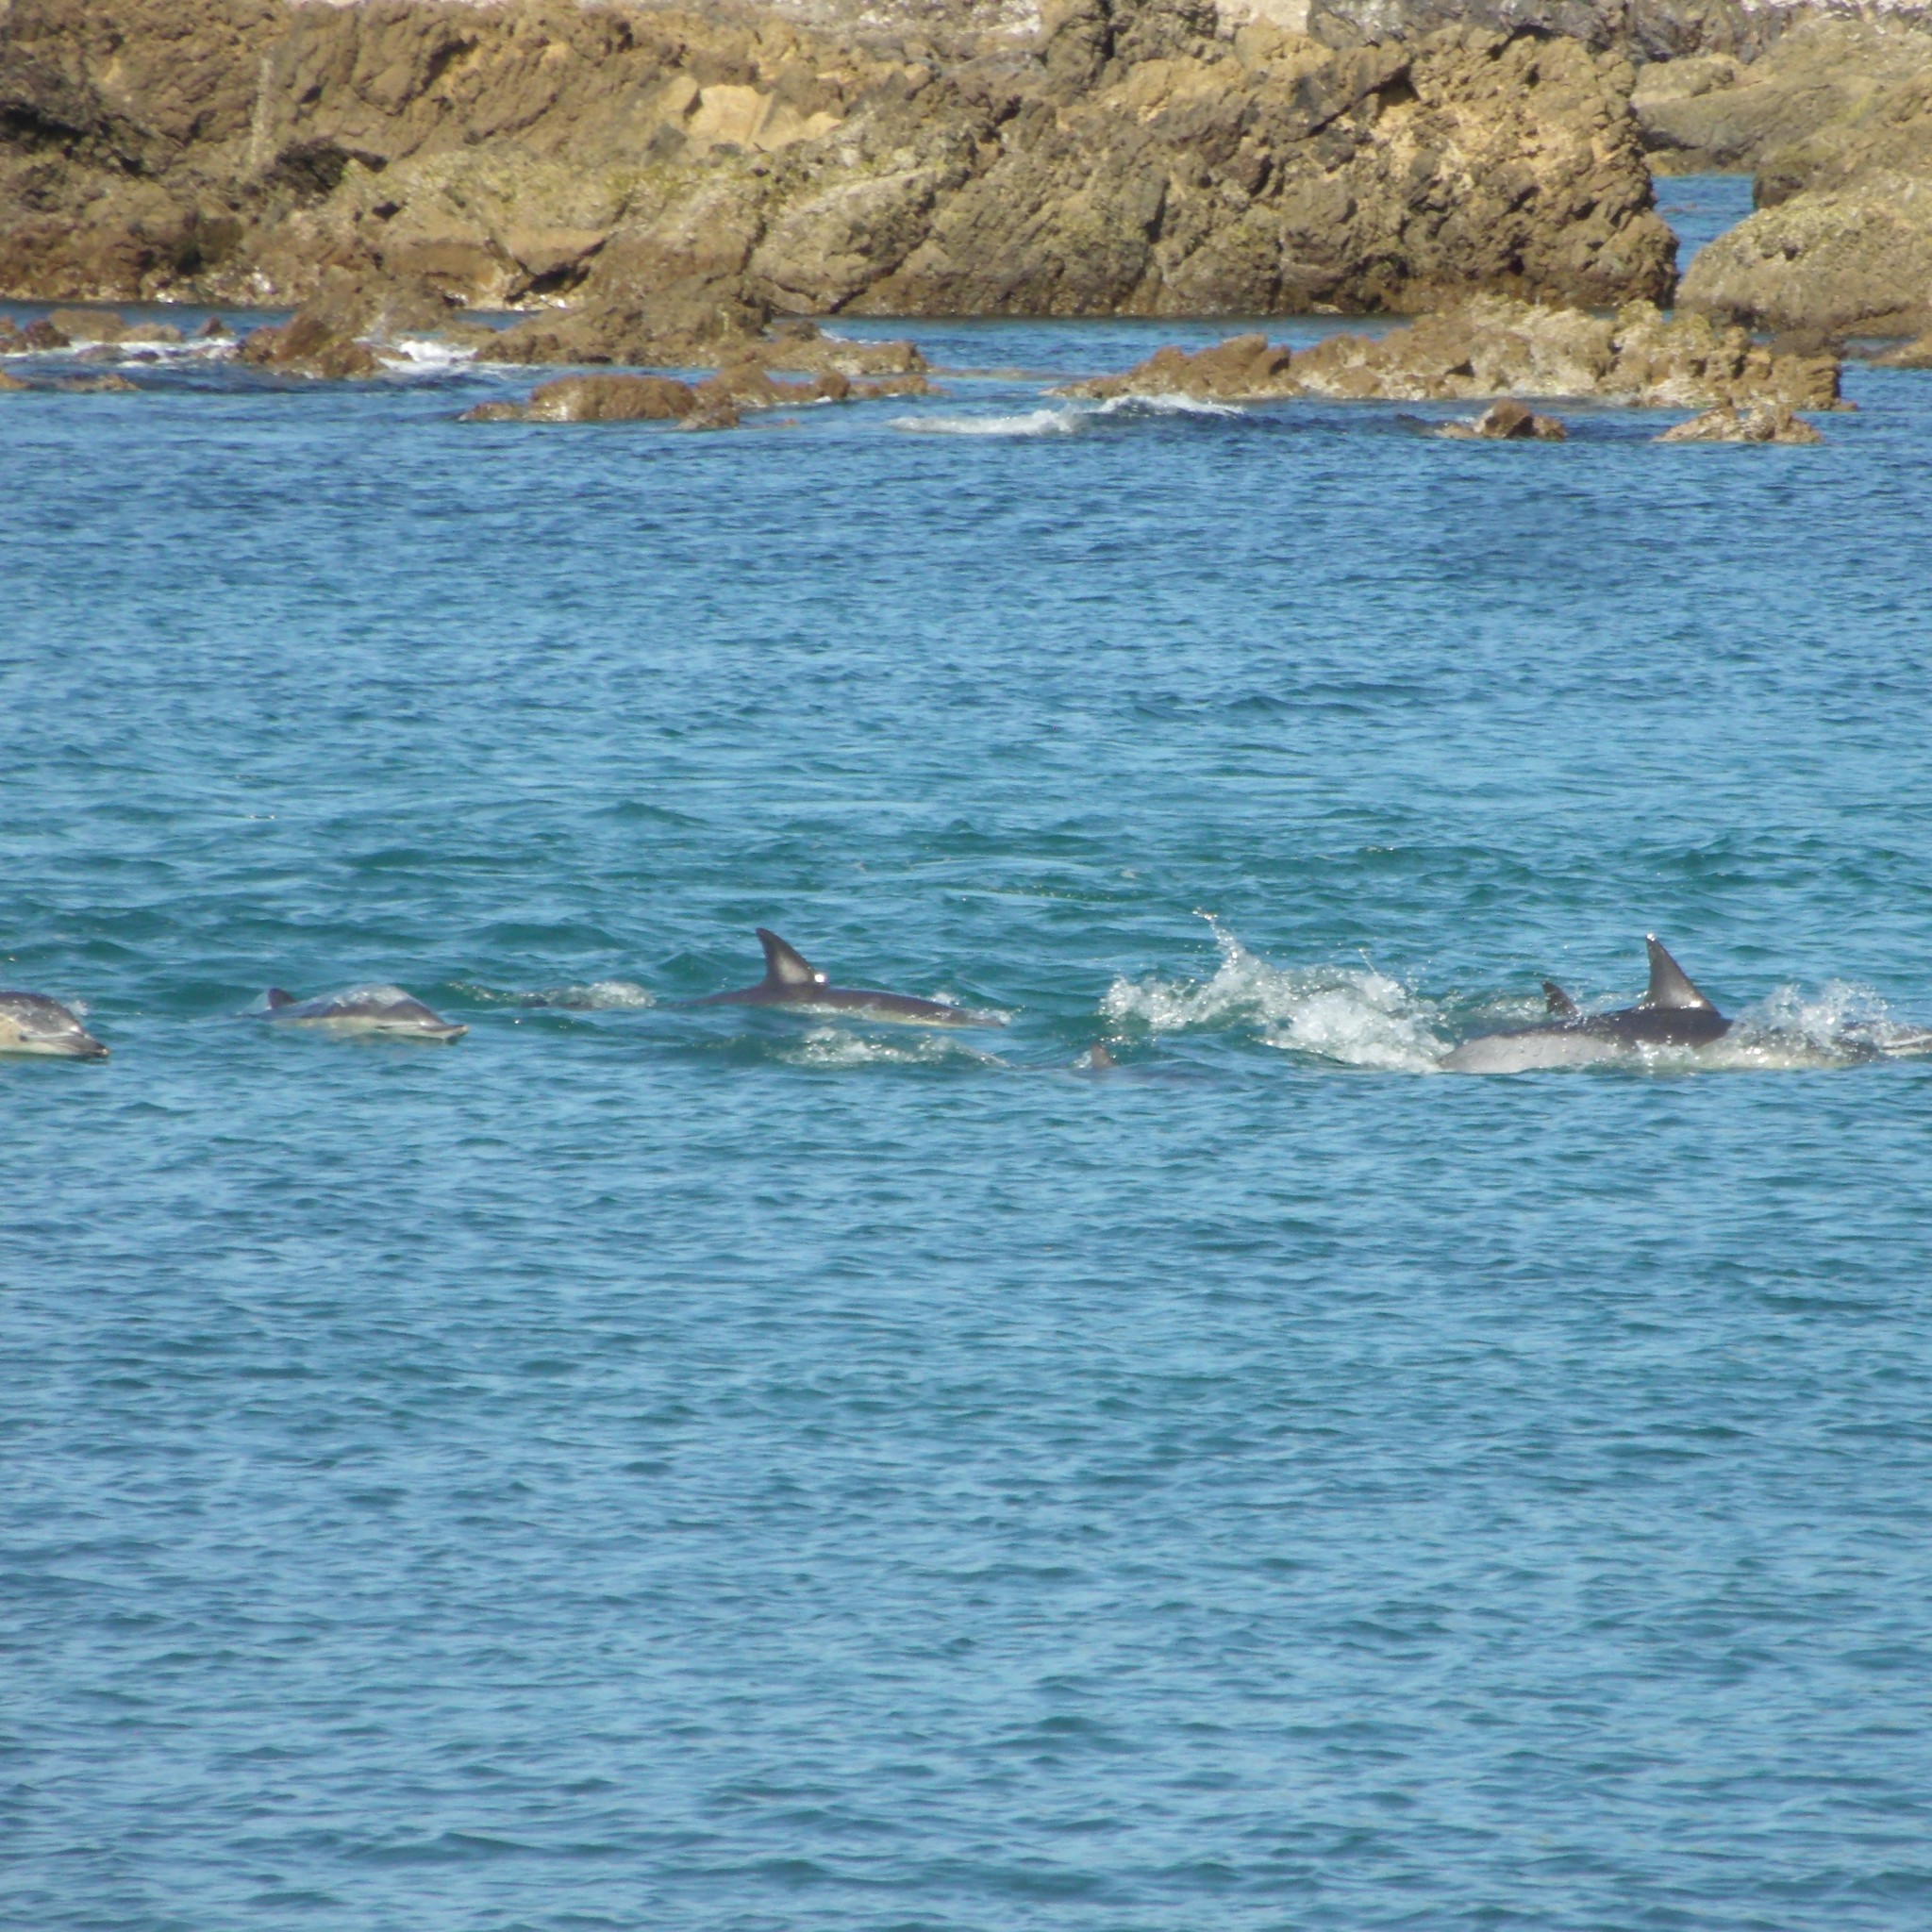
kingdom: Animalia
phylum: Chordata
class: Mammalia
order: Cetacea
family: Delphinidae
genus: Delphinus
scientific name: Delphinus delphis
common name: Common dolphin
